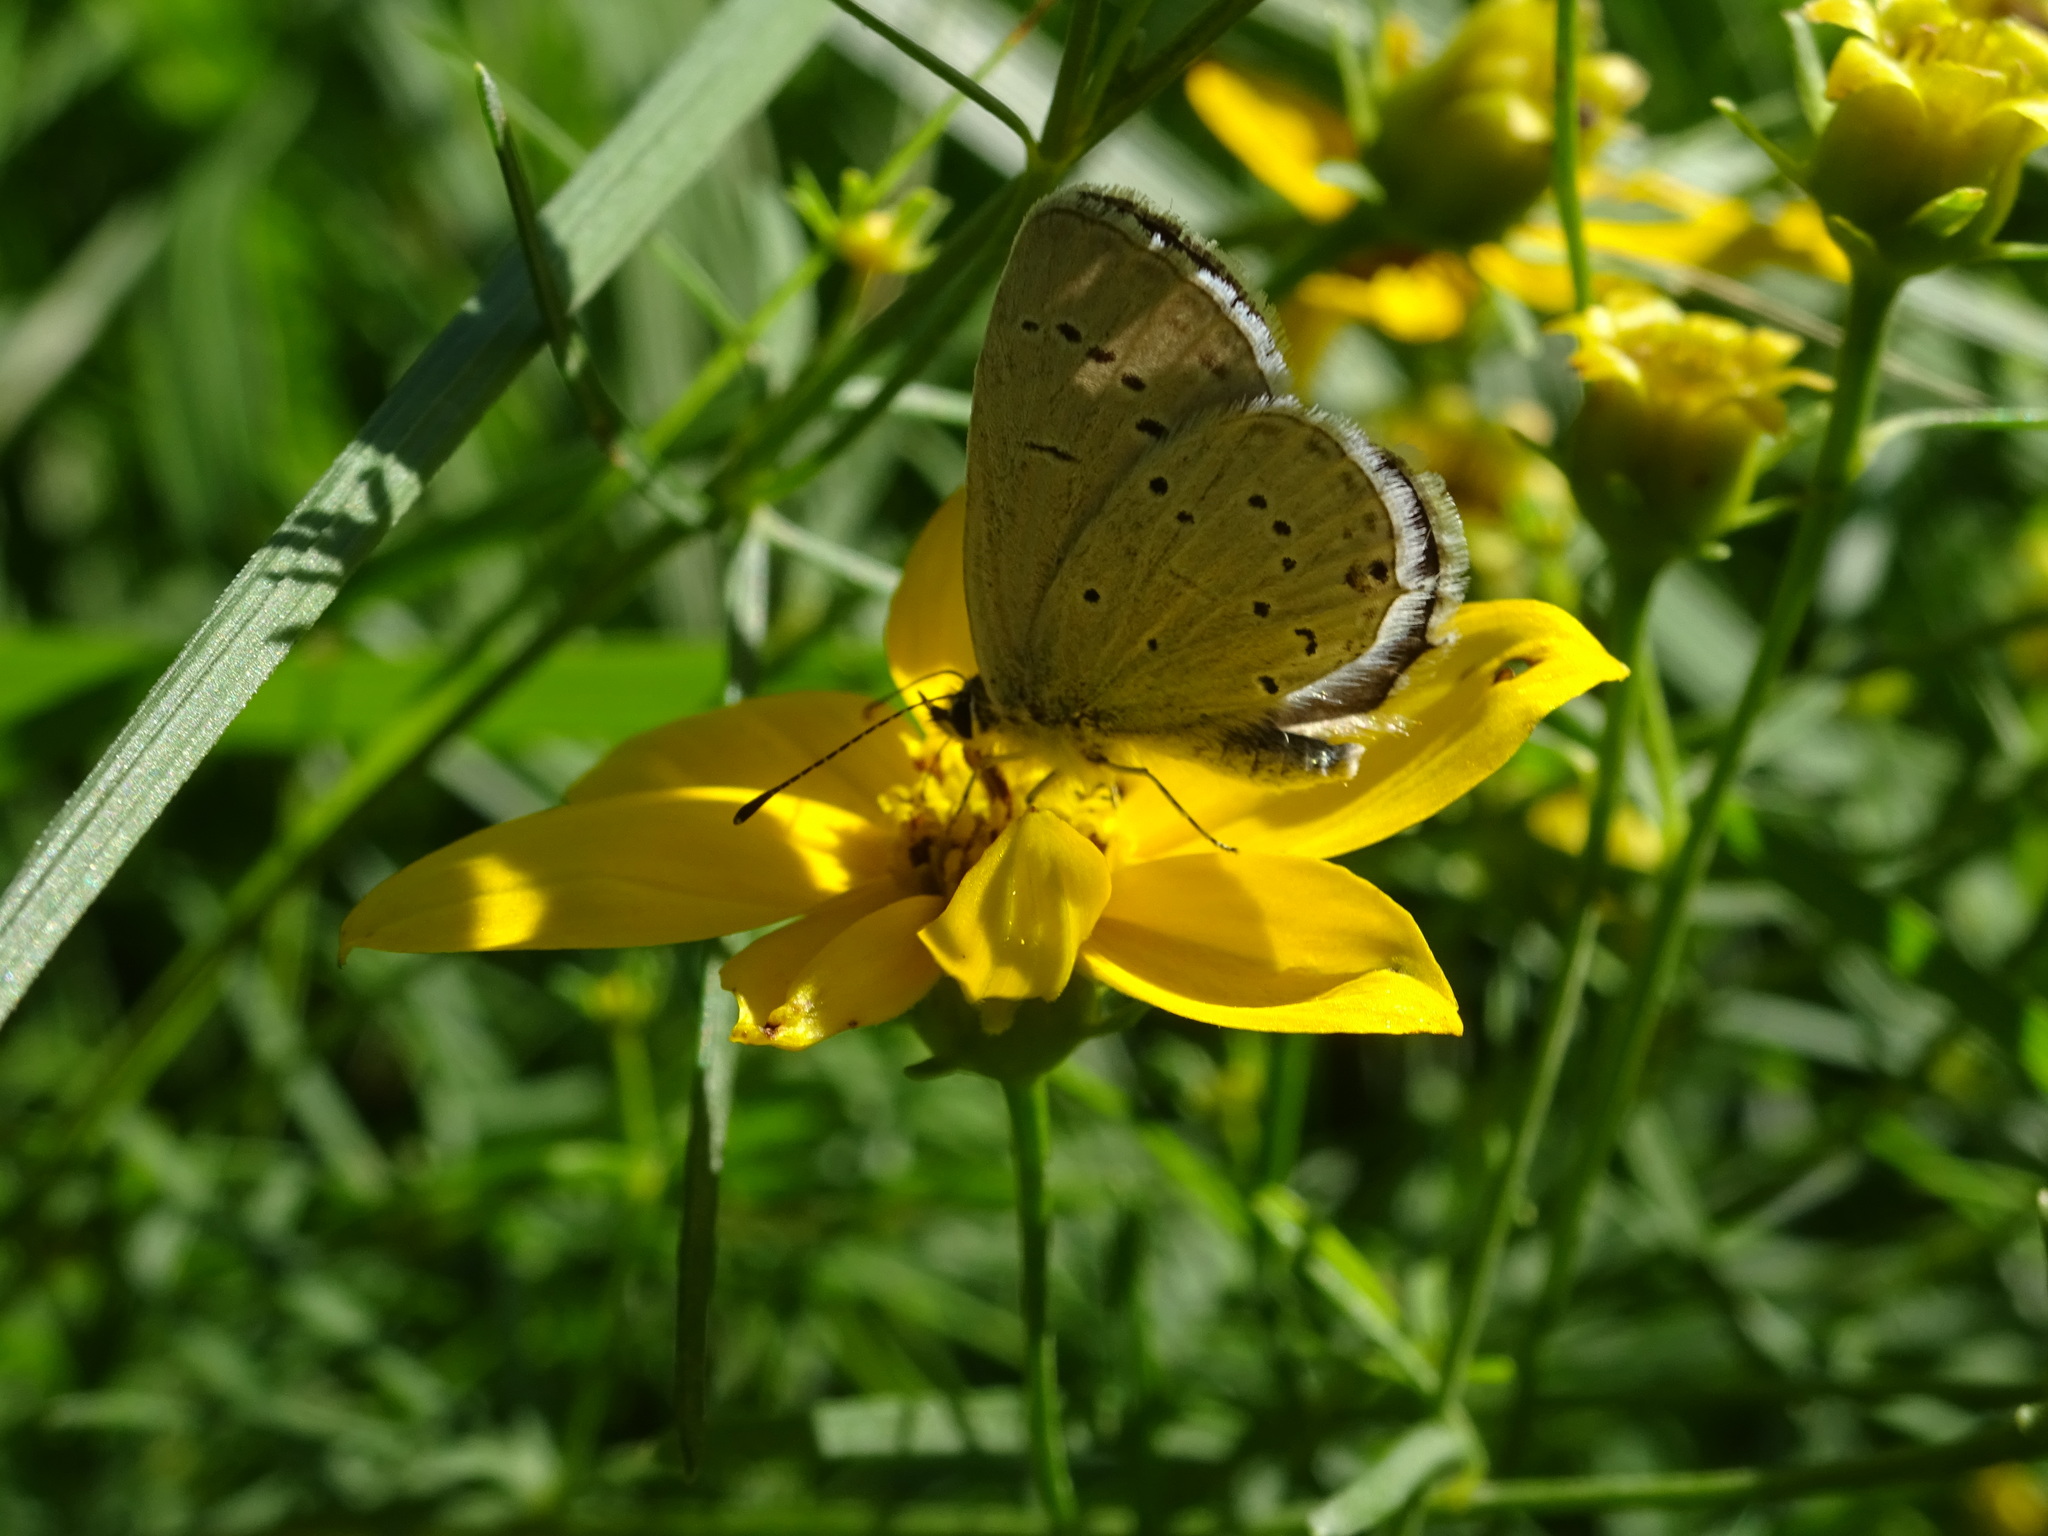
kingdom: Animalia
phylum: Arthropoda
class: Insecta
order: Lepidoptera
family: Lycaenidae
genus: Elkalyce
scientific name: Elkalyce alcetas
